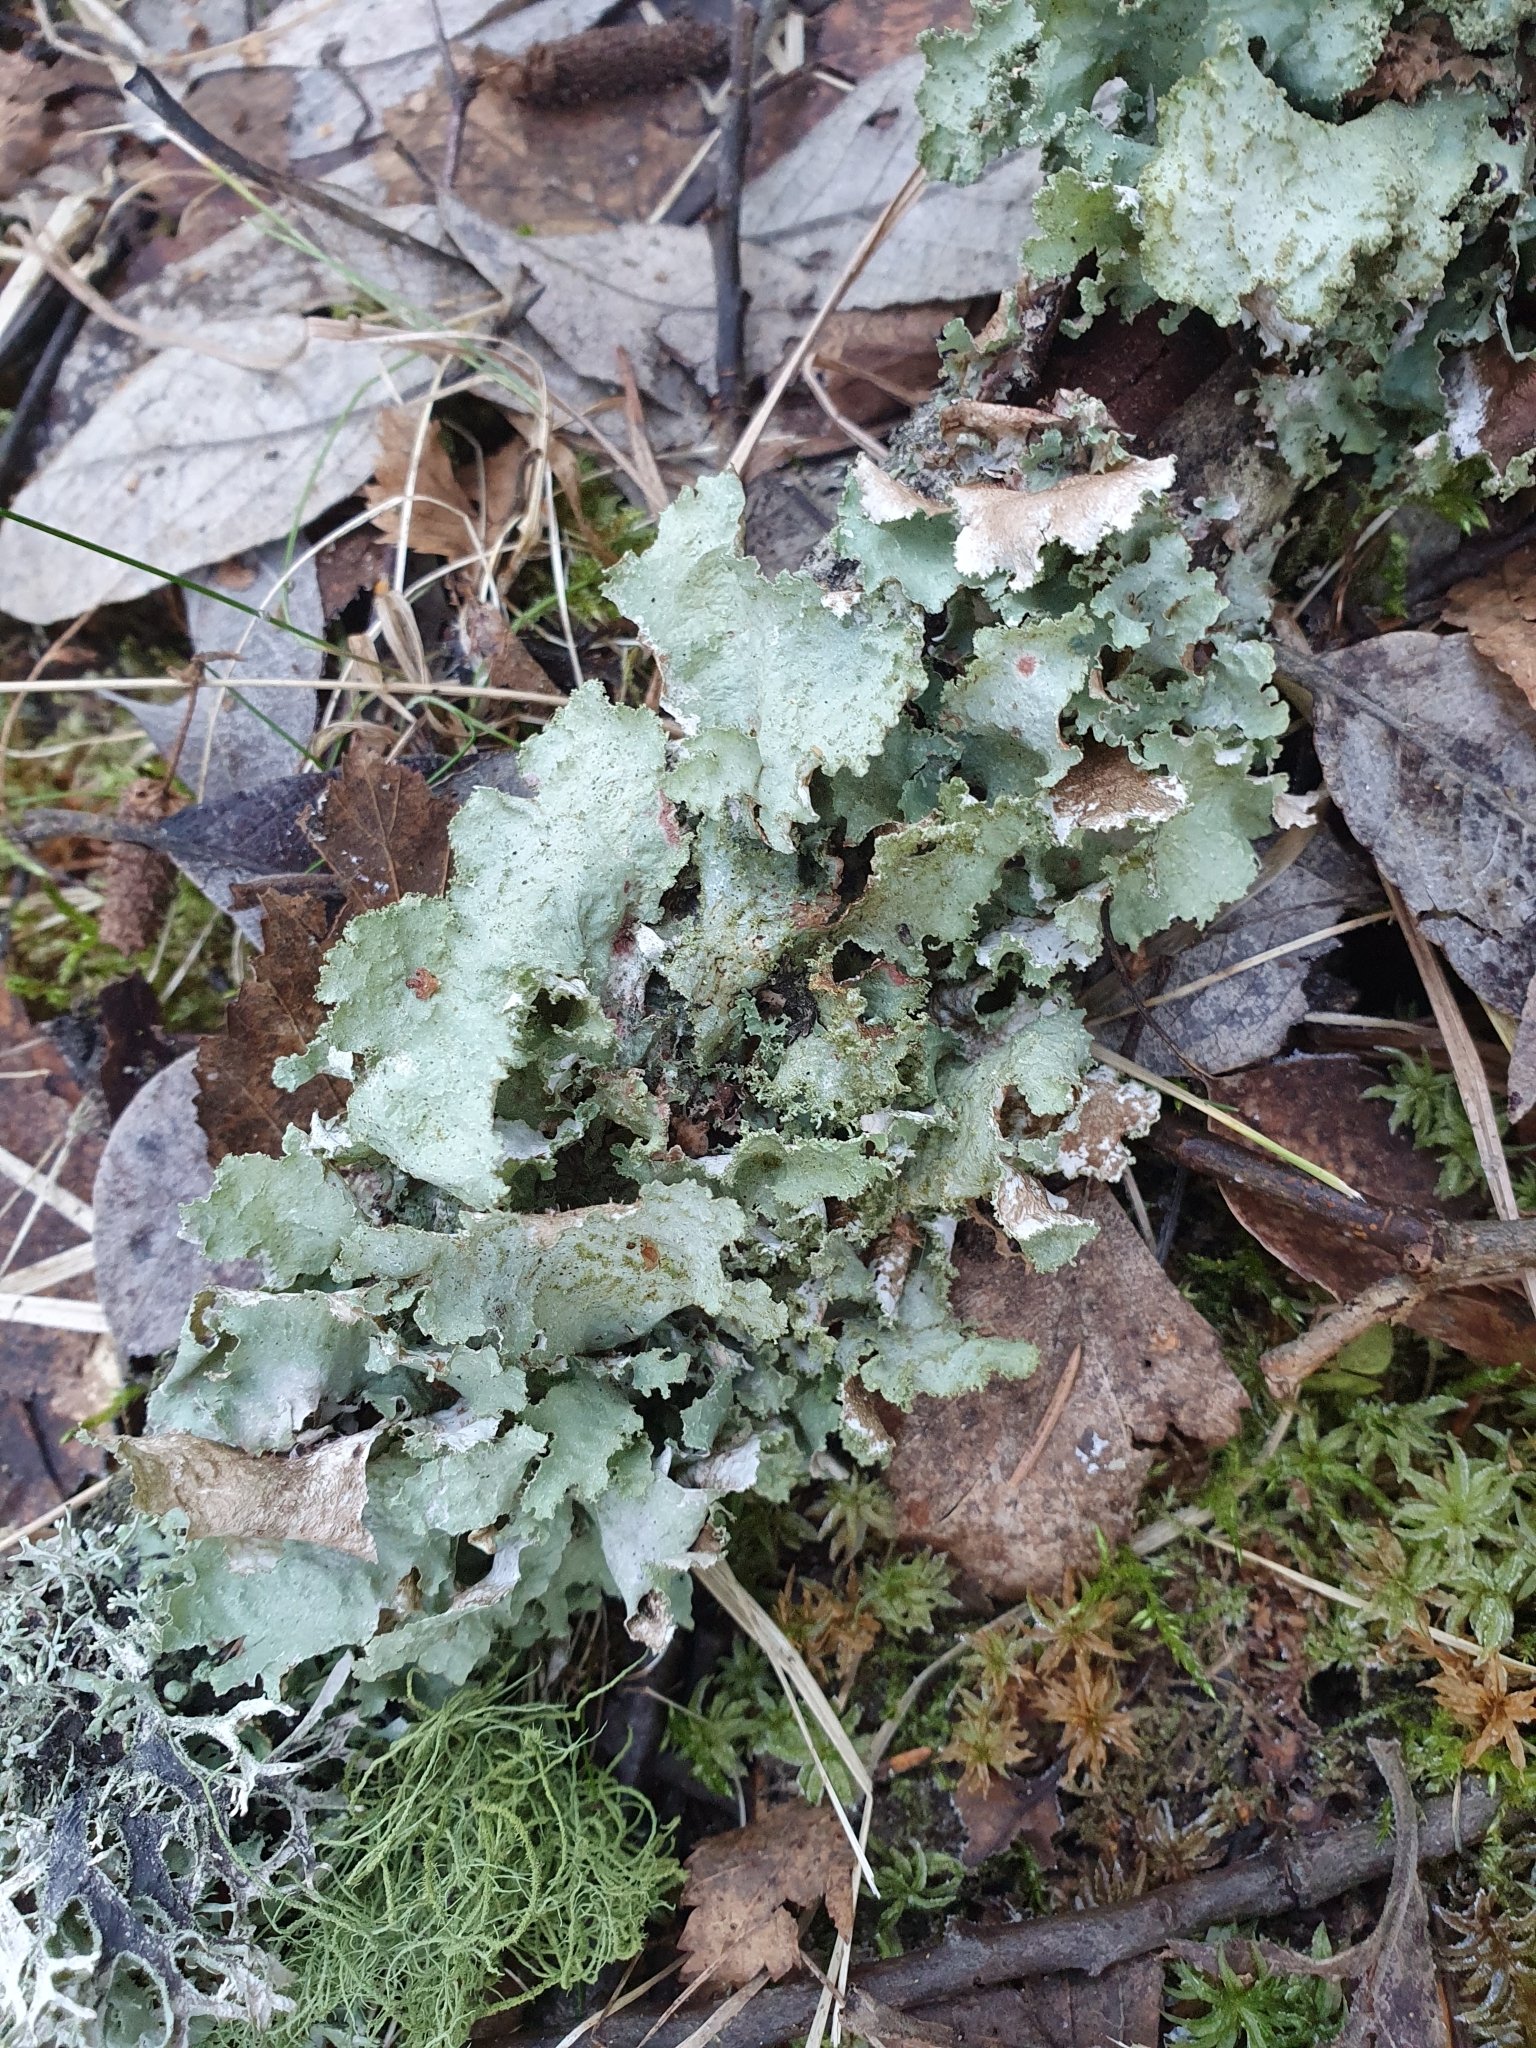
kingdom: Fungi
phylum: Ascomycota
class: Lecanoromycetes
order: Lecanorales
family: Parmeliaceae
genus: Platismatia
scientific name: Platismatia glauca
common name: Varied rag lichen
